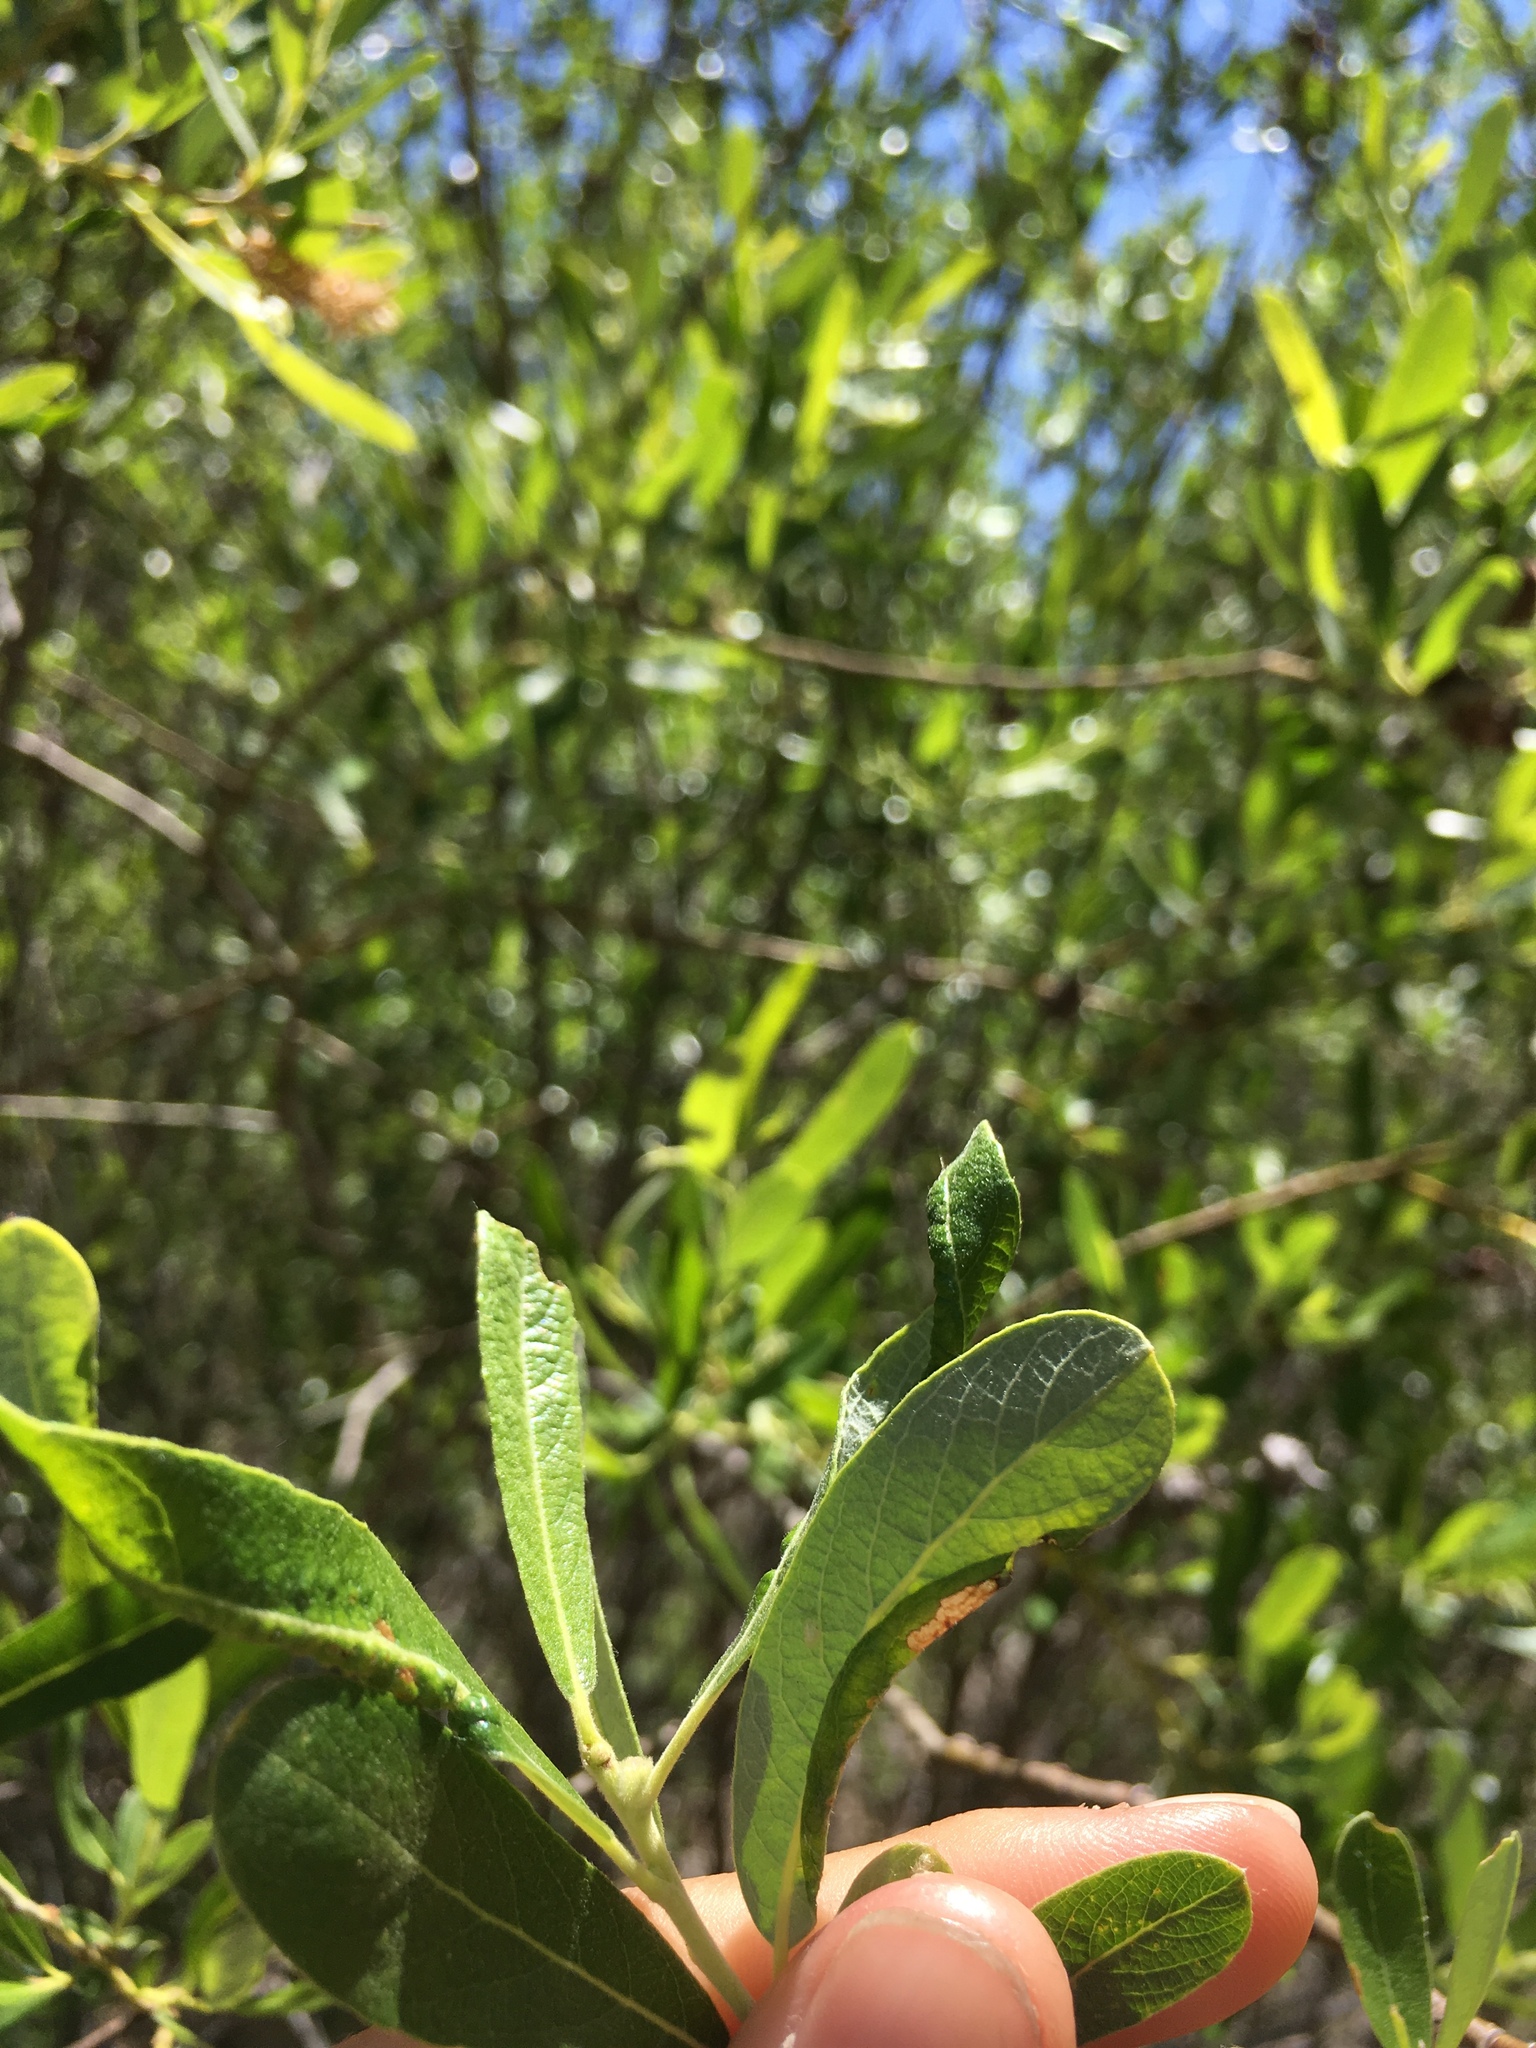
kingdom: Plantae
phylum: Tracheophyta
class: Magnoliopsida
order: Malpighiales
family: Salicaceae
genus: Salix
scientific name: Salix lasiolepis
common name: Arroyo willow
